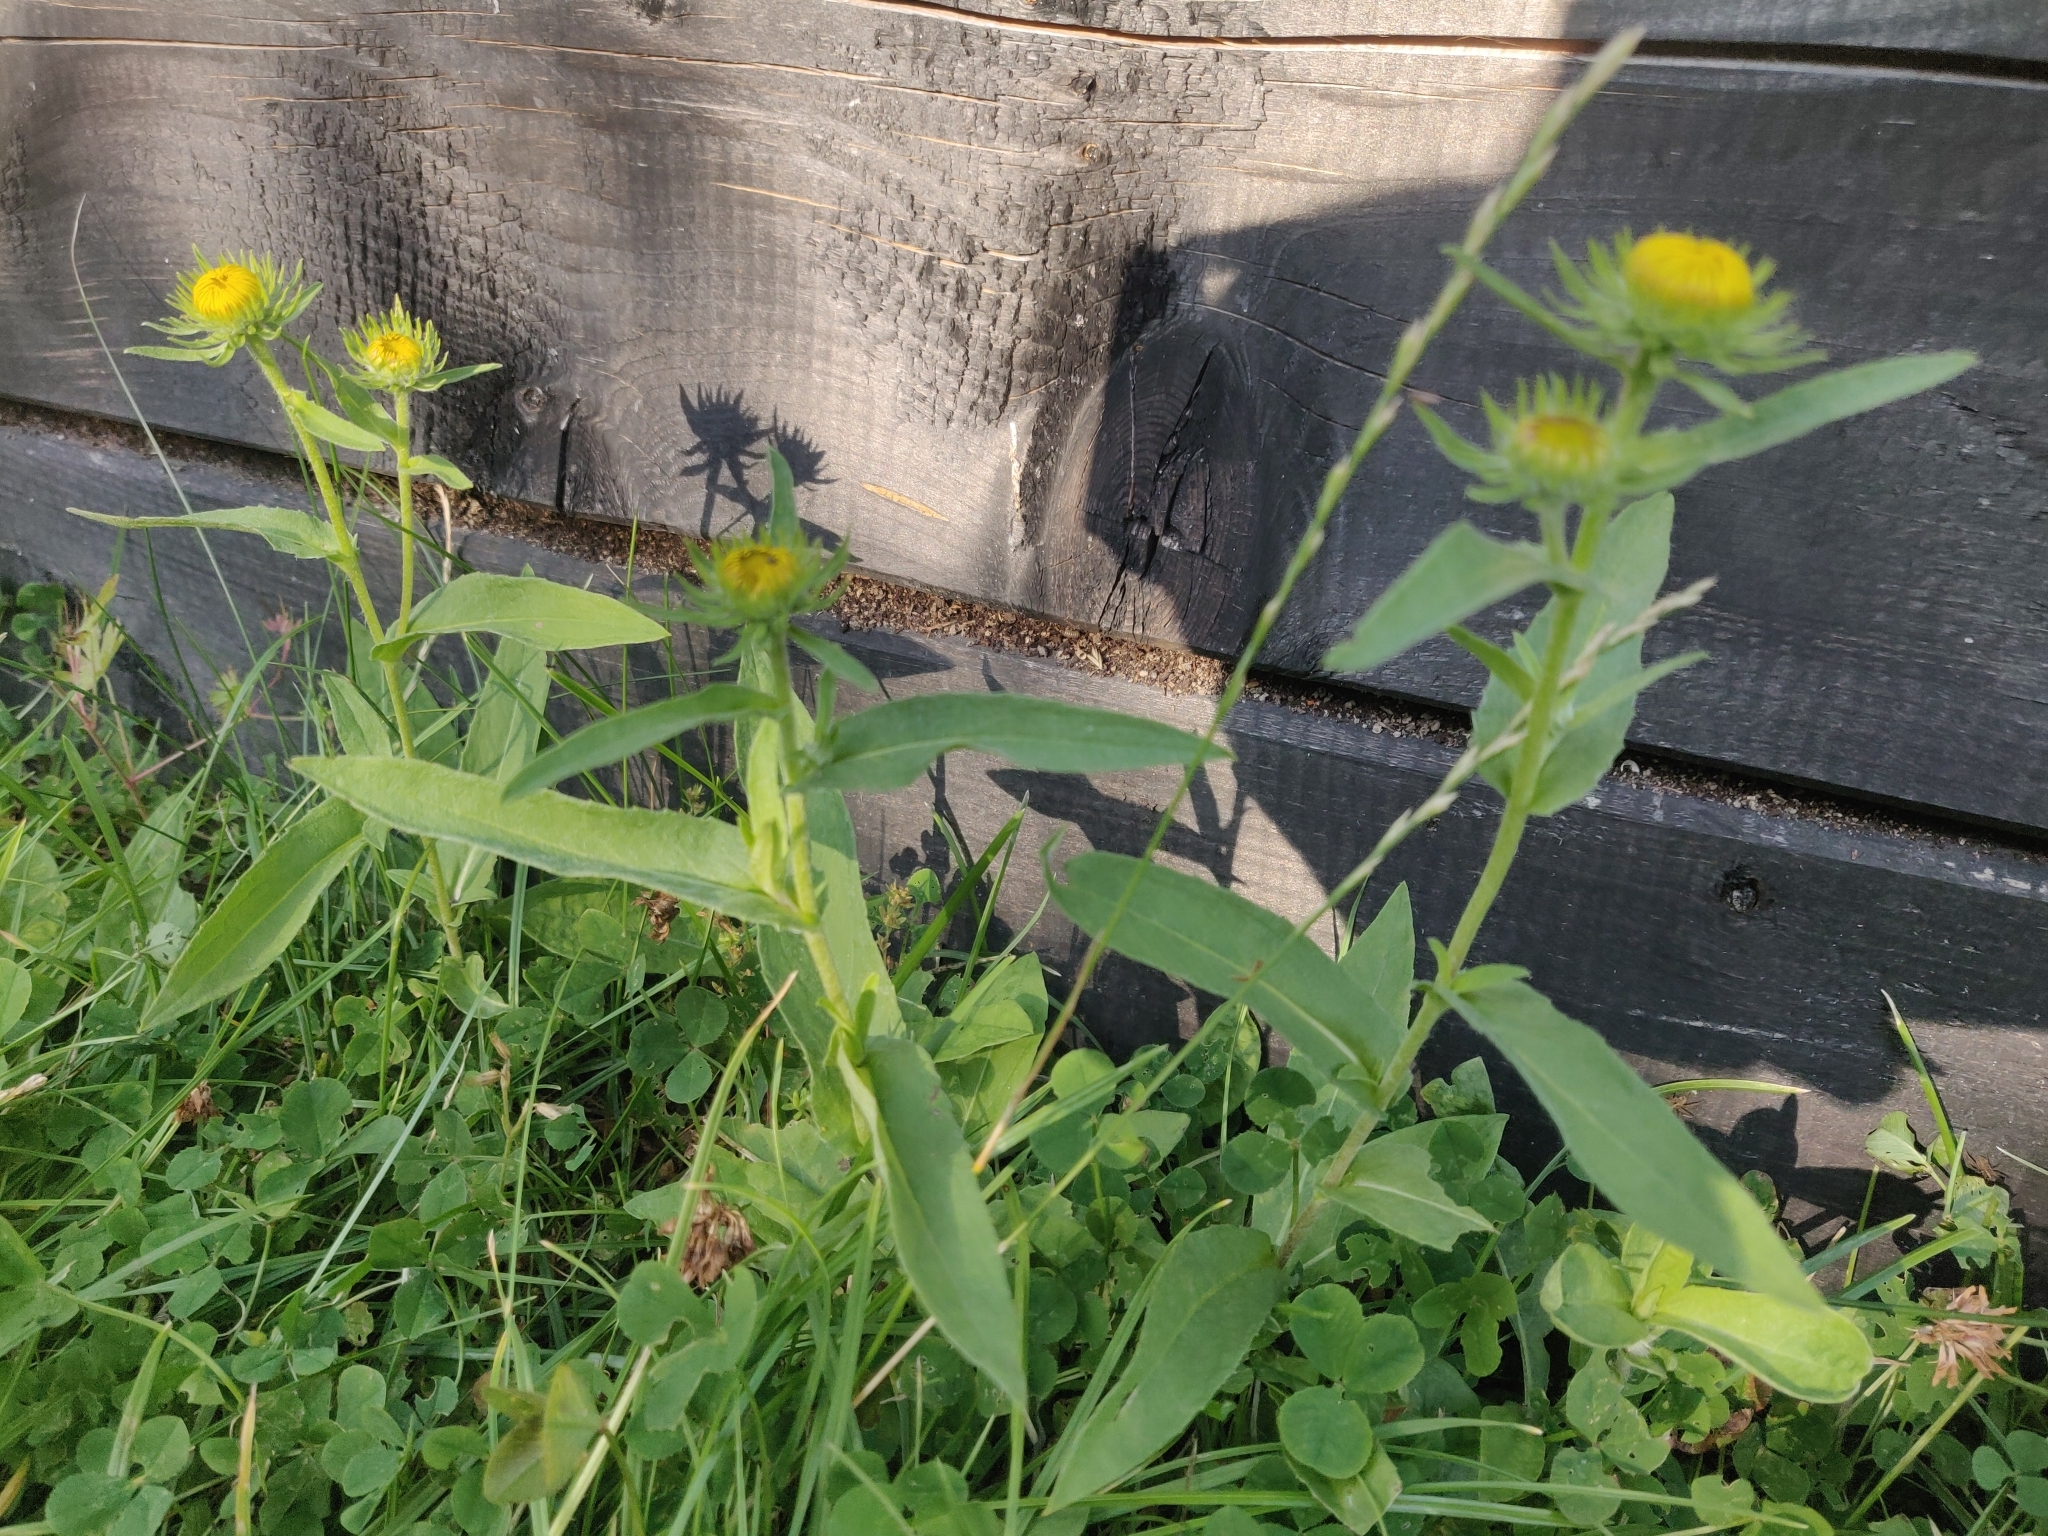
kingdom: Plantae
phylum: Tracheophyta
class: Magnoliopsida
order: Asterales
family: Asteraceae
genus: Pentanema
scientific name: Pentanema britannicum
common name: British elecampane
